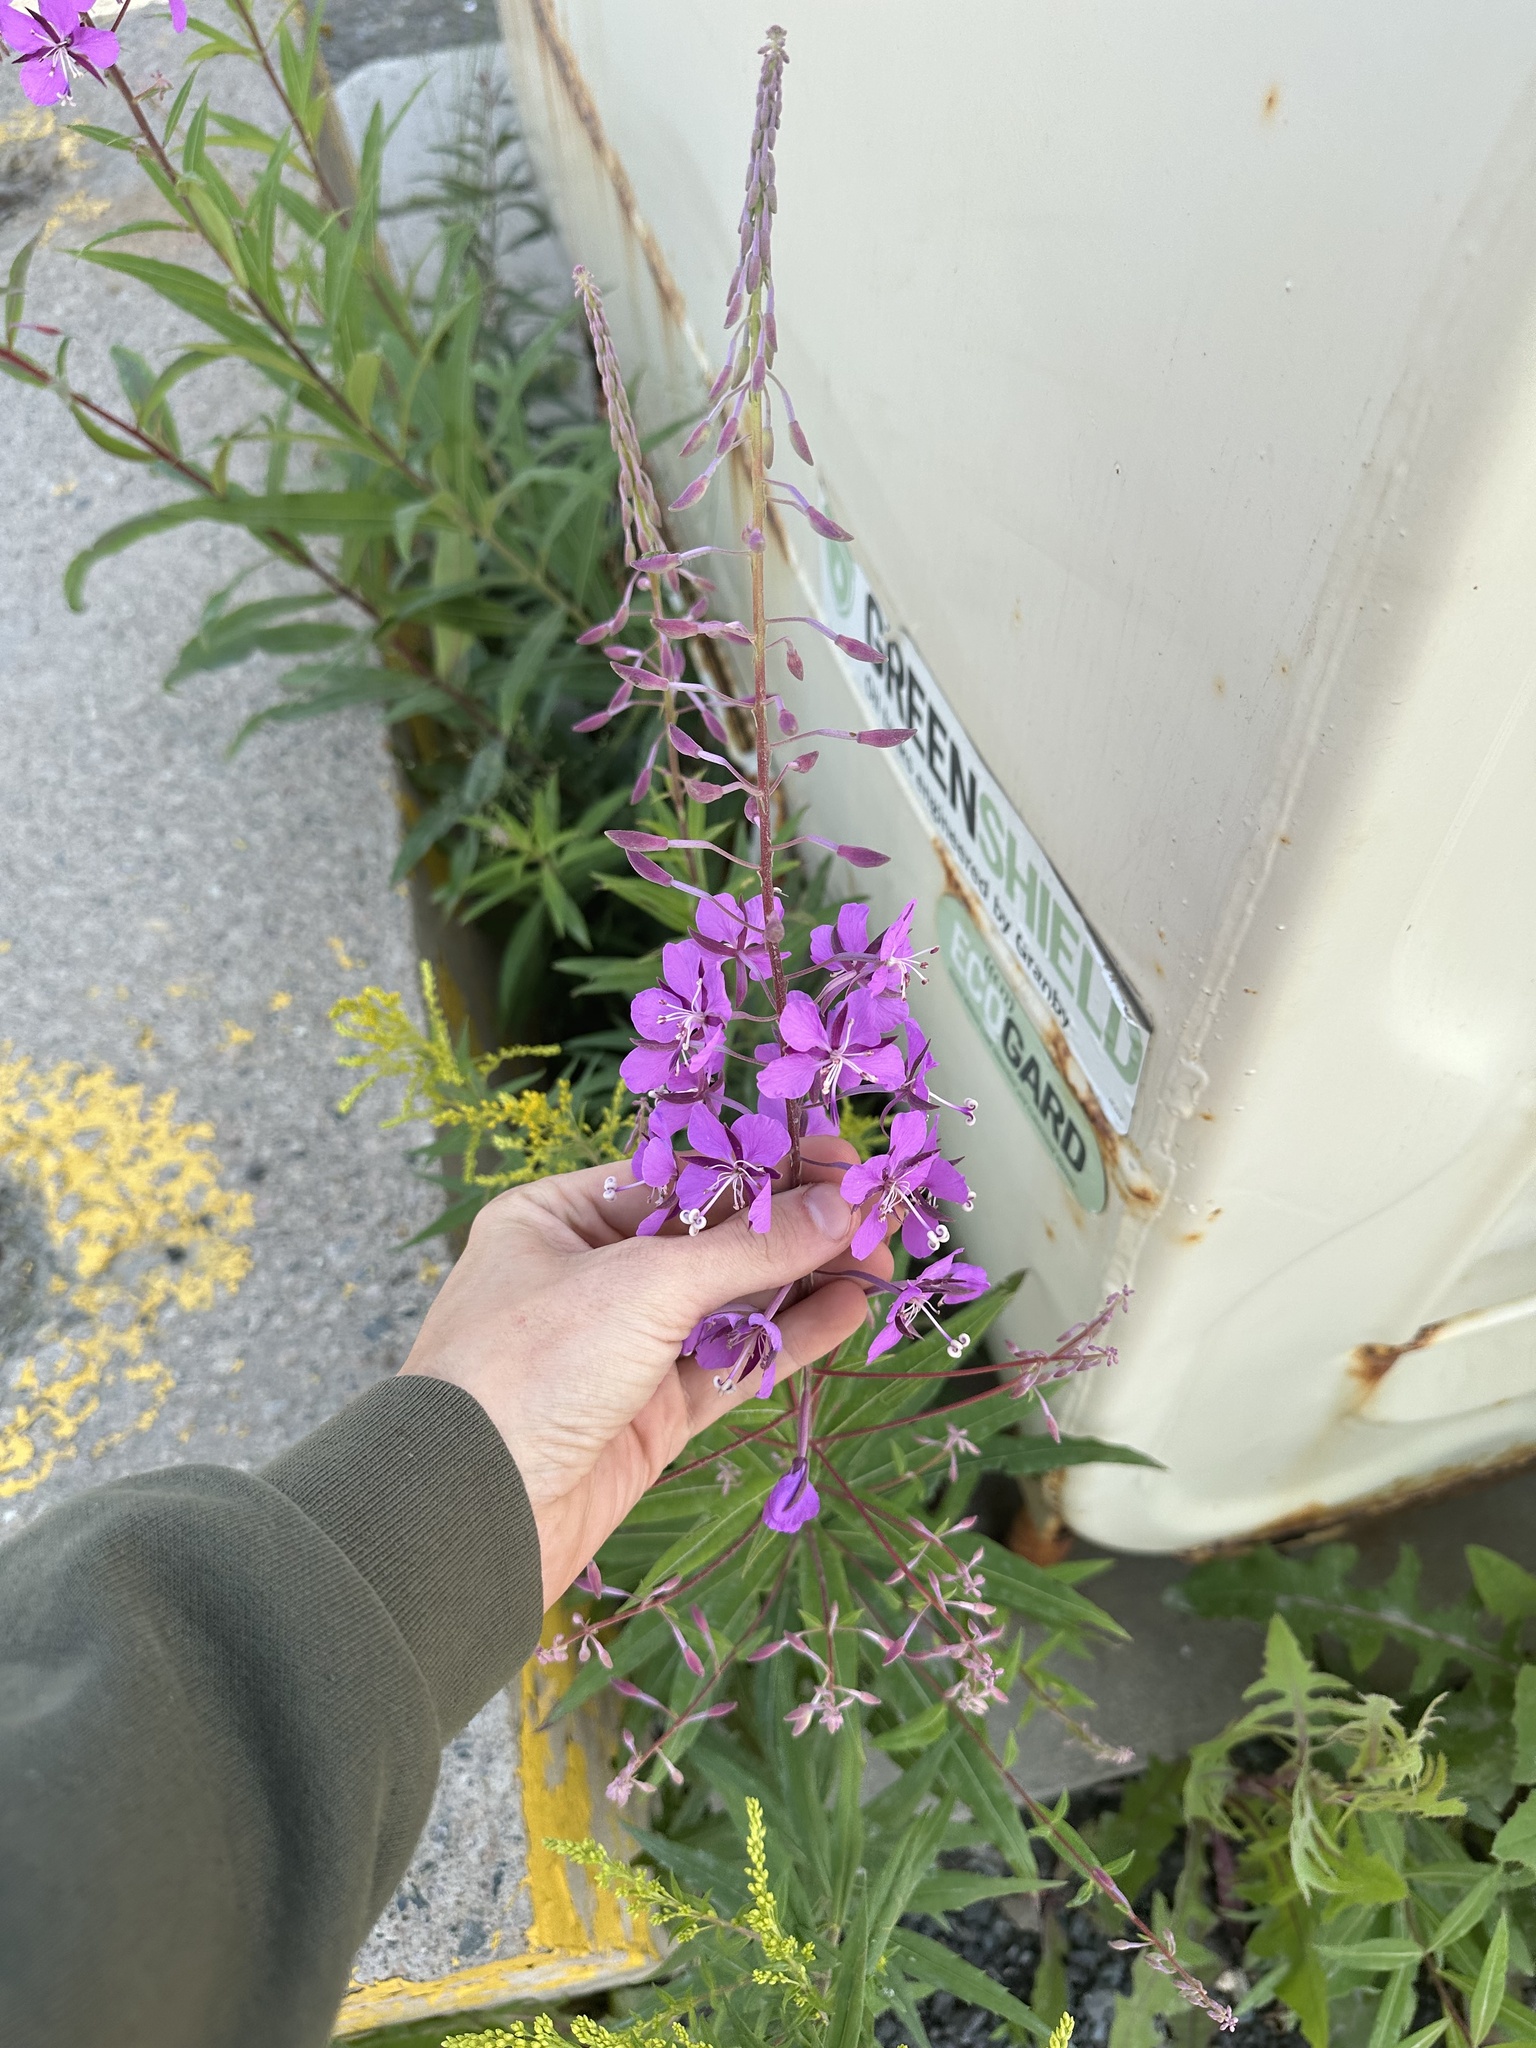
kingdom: Plantae
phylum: Tracheophyta
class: Magnoliopsida
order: Myrtales
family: Onagraceae
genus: Chamaenerion
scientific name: Chamaenerion angustifolium
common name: Fireweed
